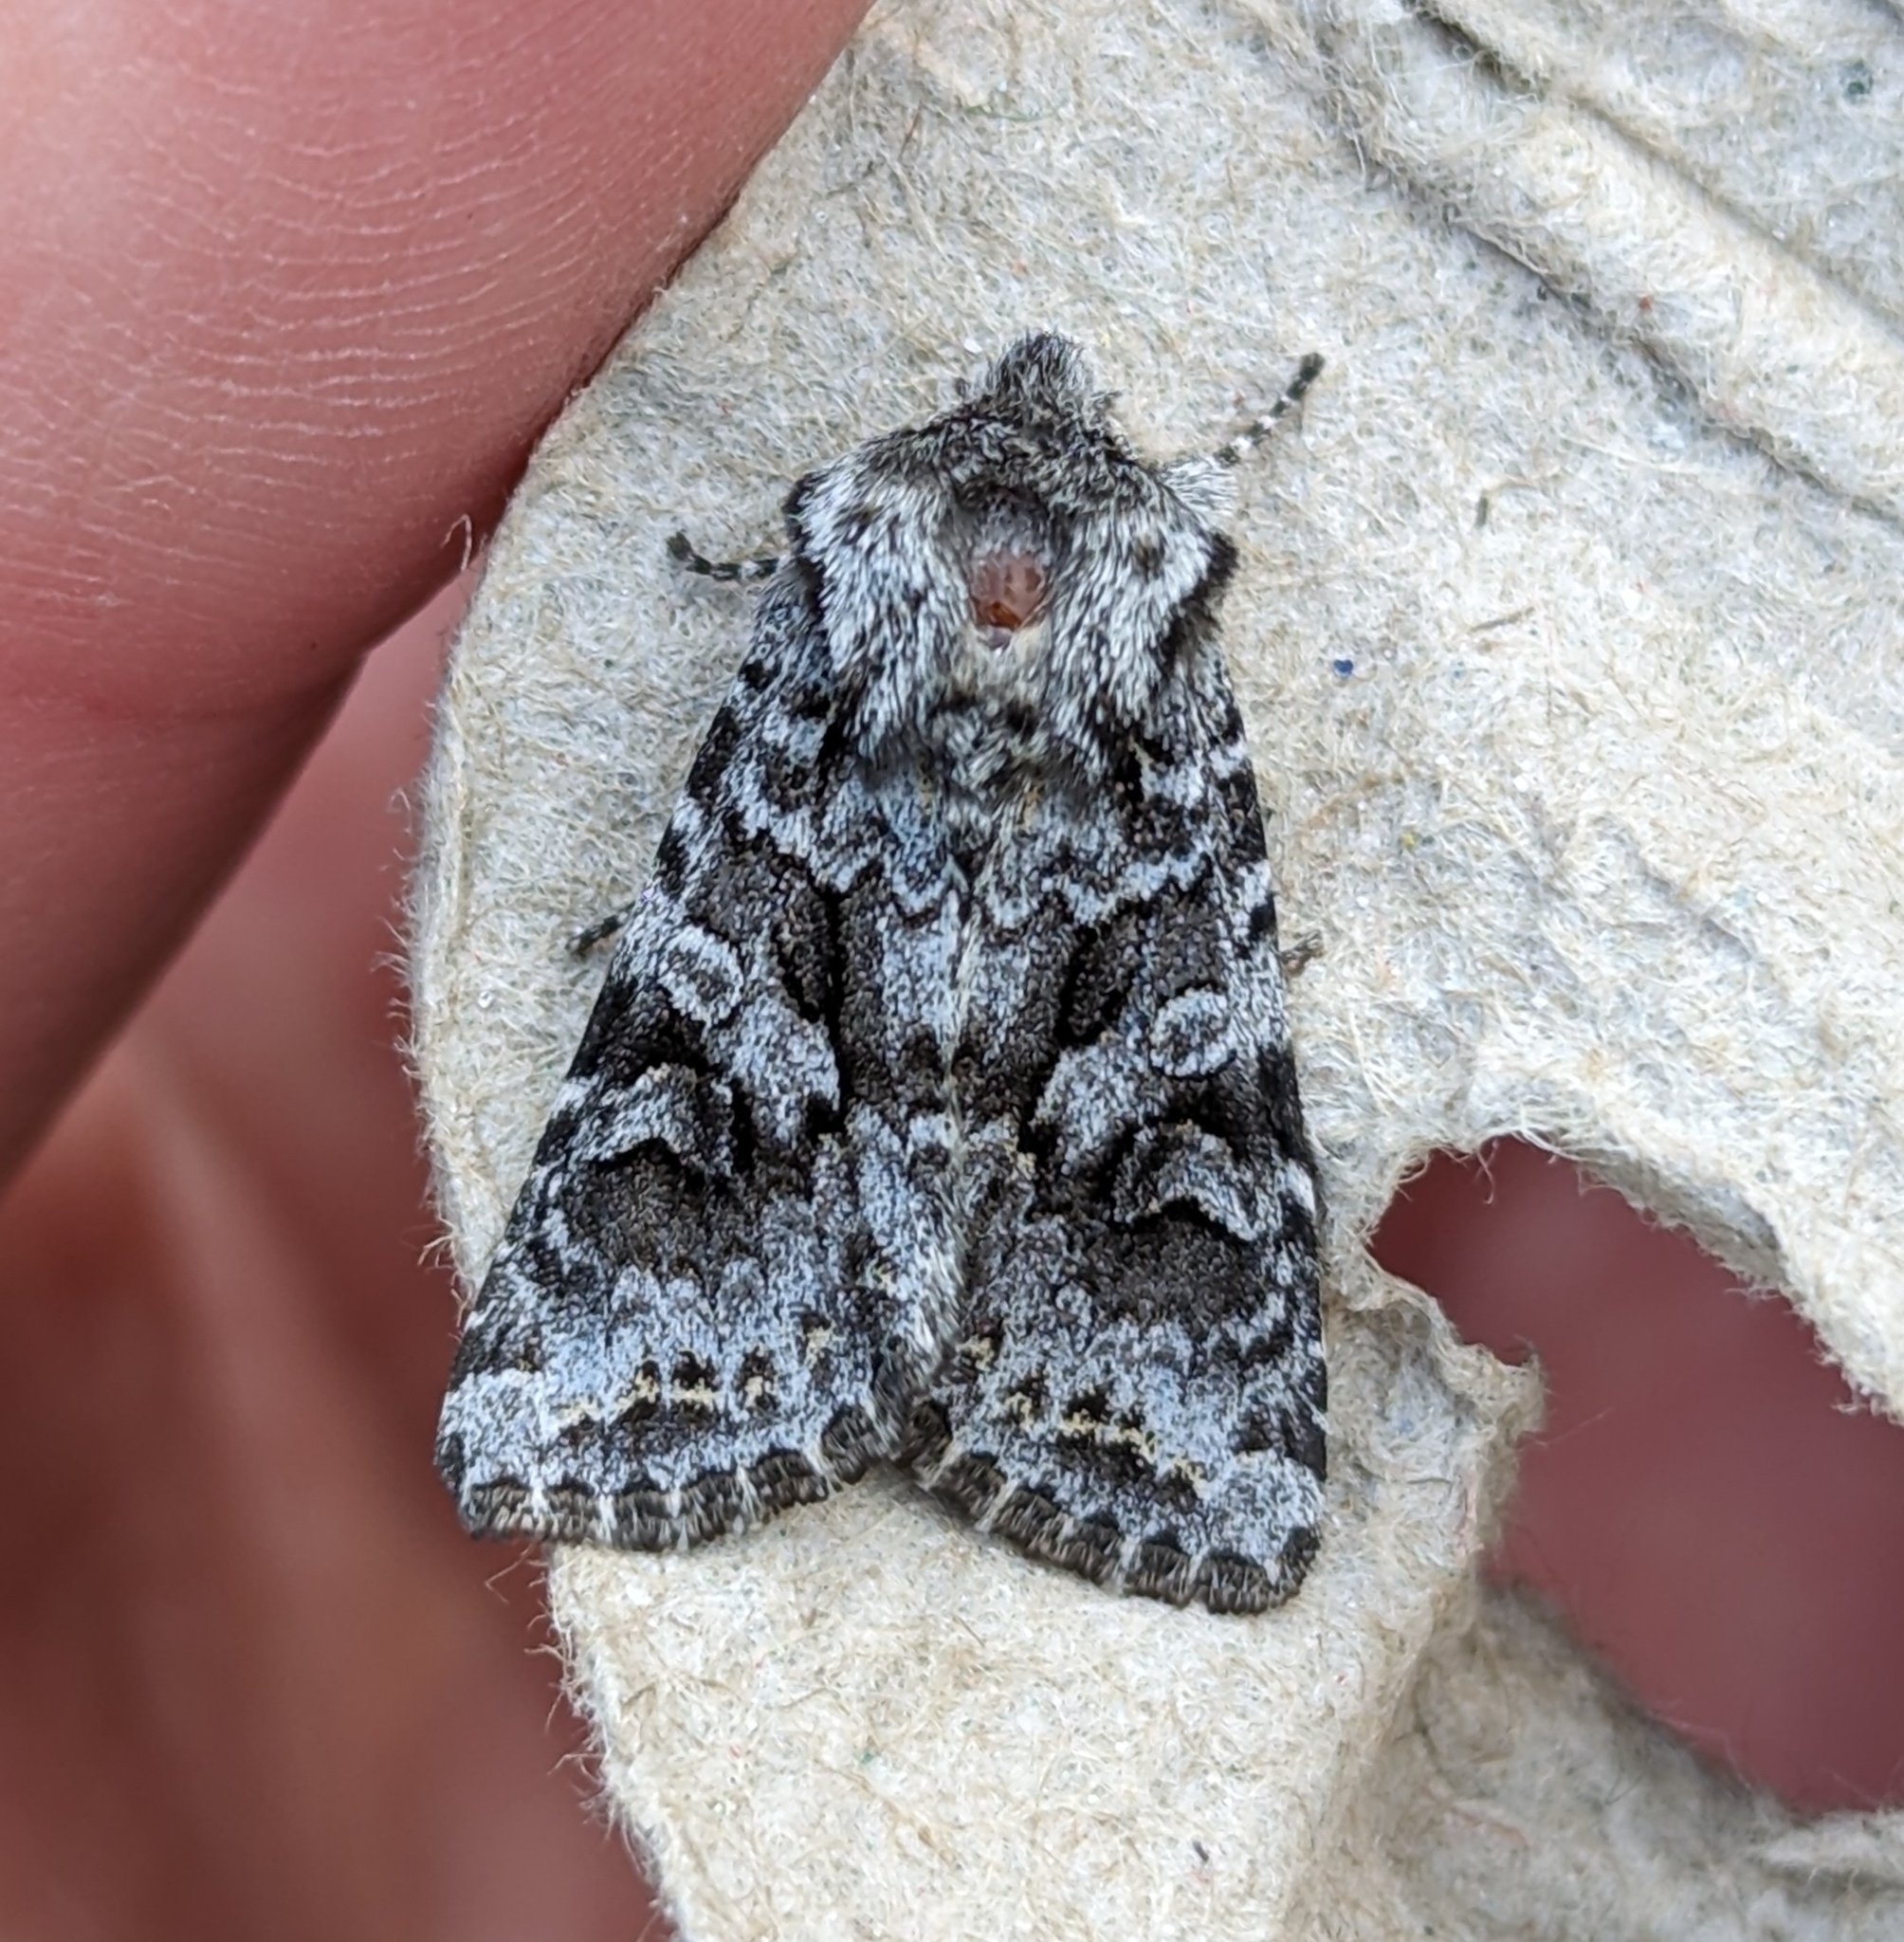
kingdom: Animalia
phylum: Arthropoda
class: Insecta
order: Lepidoptera
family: Noctuidae
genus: Hada
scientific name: Hada sutrina
